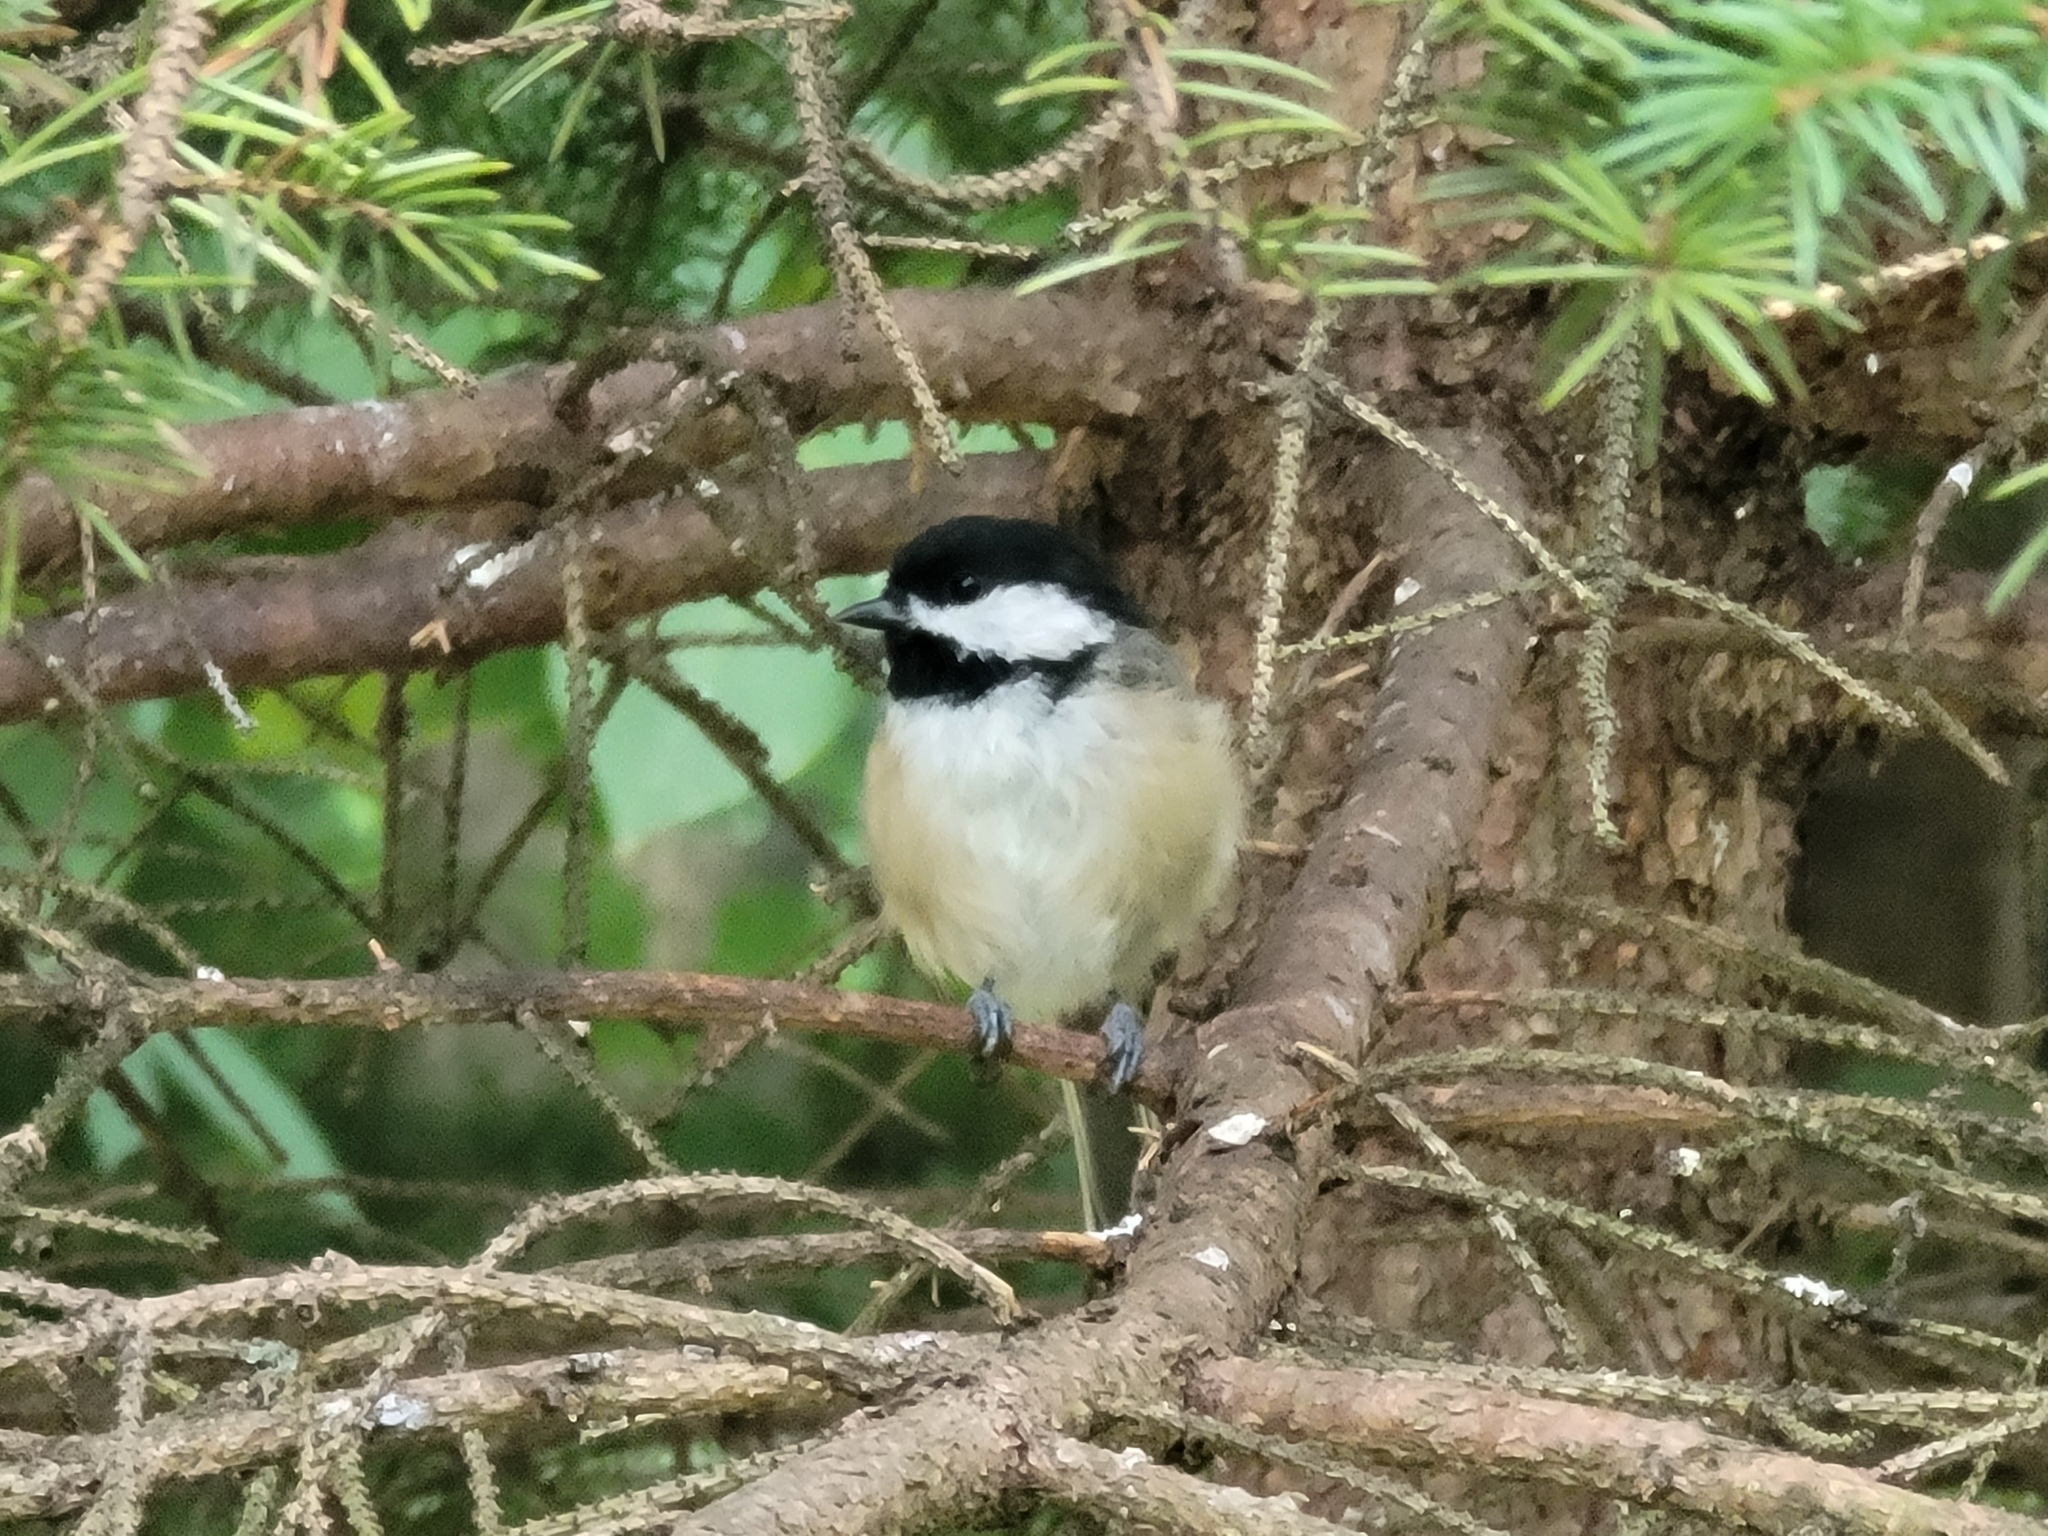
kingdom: Animalia
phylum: Chordata
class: Aves
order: Passeriformes
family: Paridae
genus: Poecile
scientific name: Poecile atricapillus
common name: Black-capped chickadee
